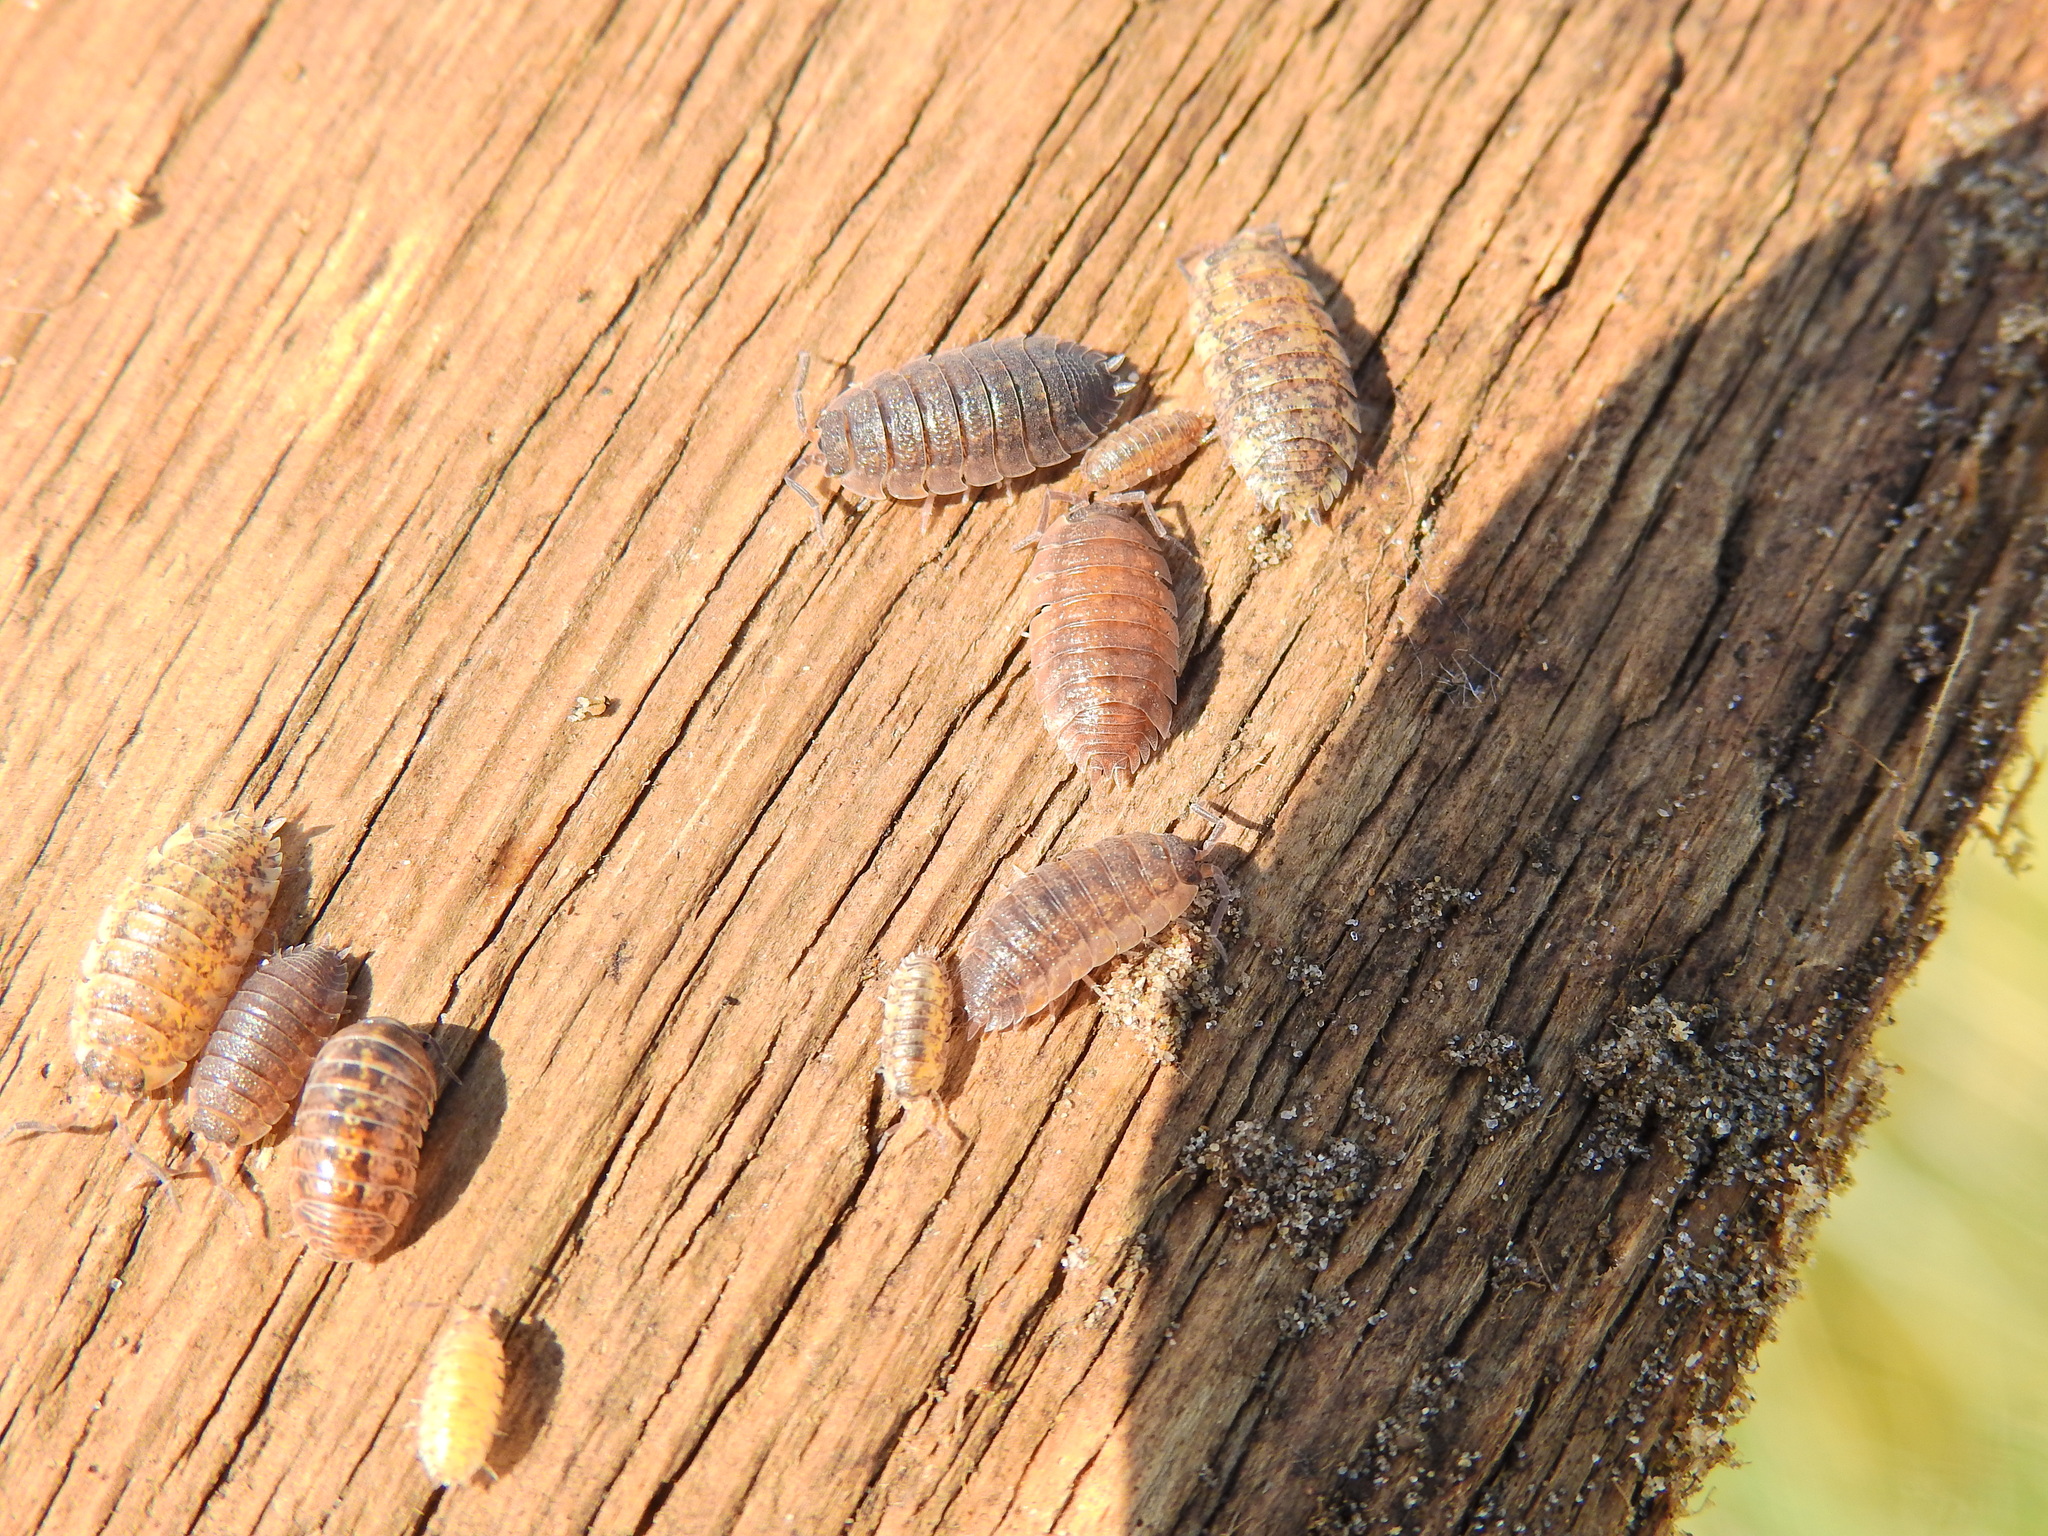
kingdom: Animalia
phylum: Arthropoda
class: Malacostraca
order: Isopoda
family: Porcellionidae
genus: Porcellio
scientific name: Porcellio scaber
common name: Common rough woodlouse
